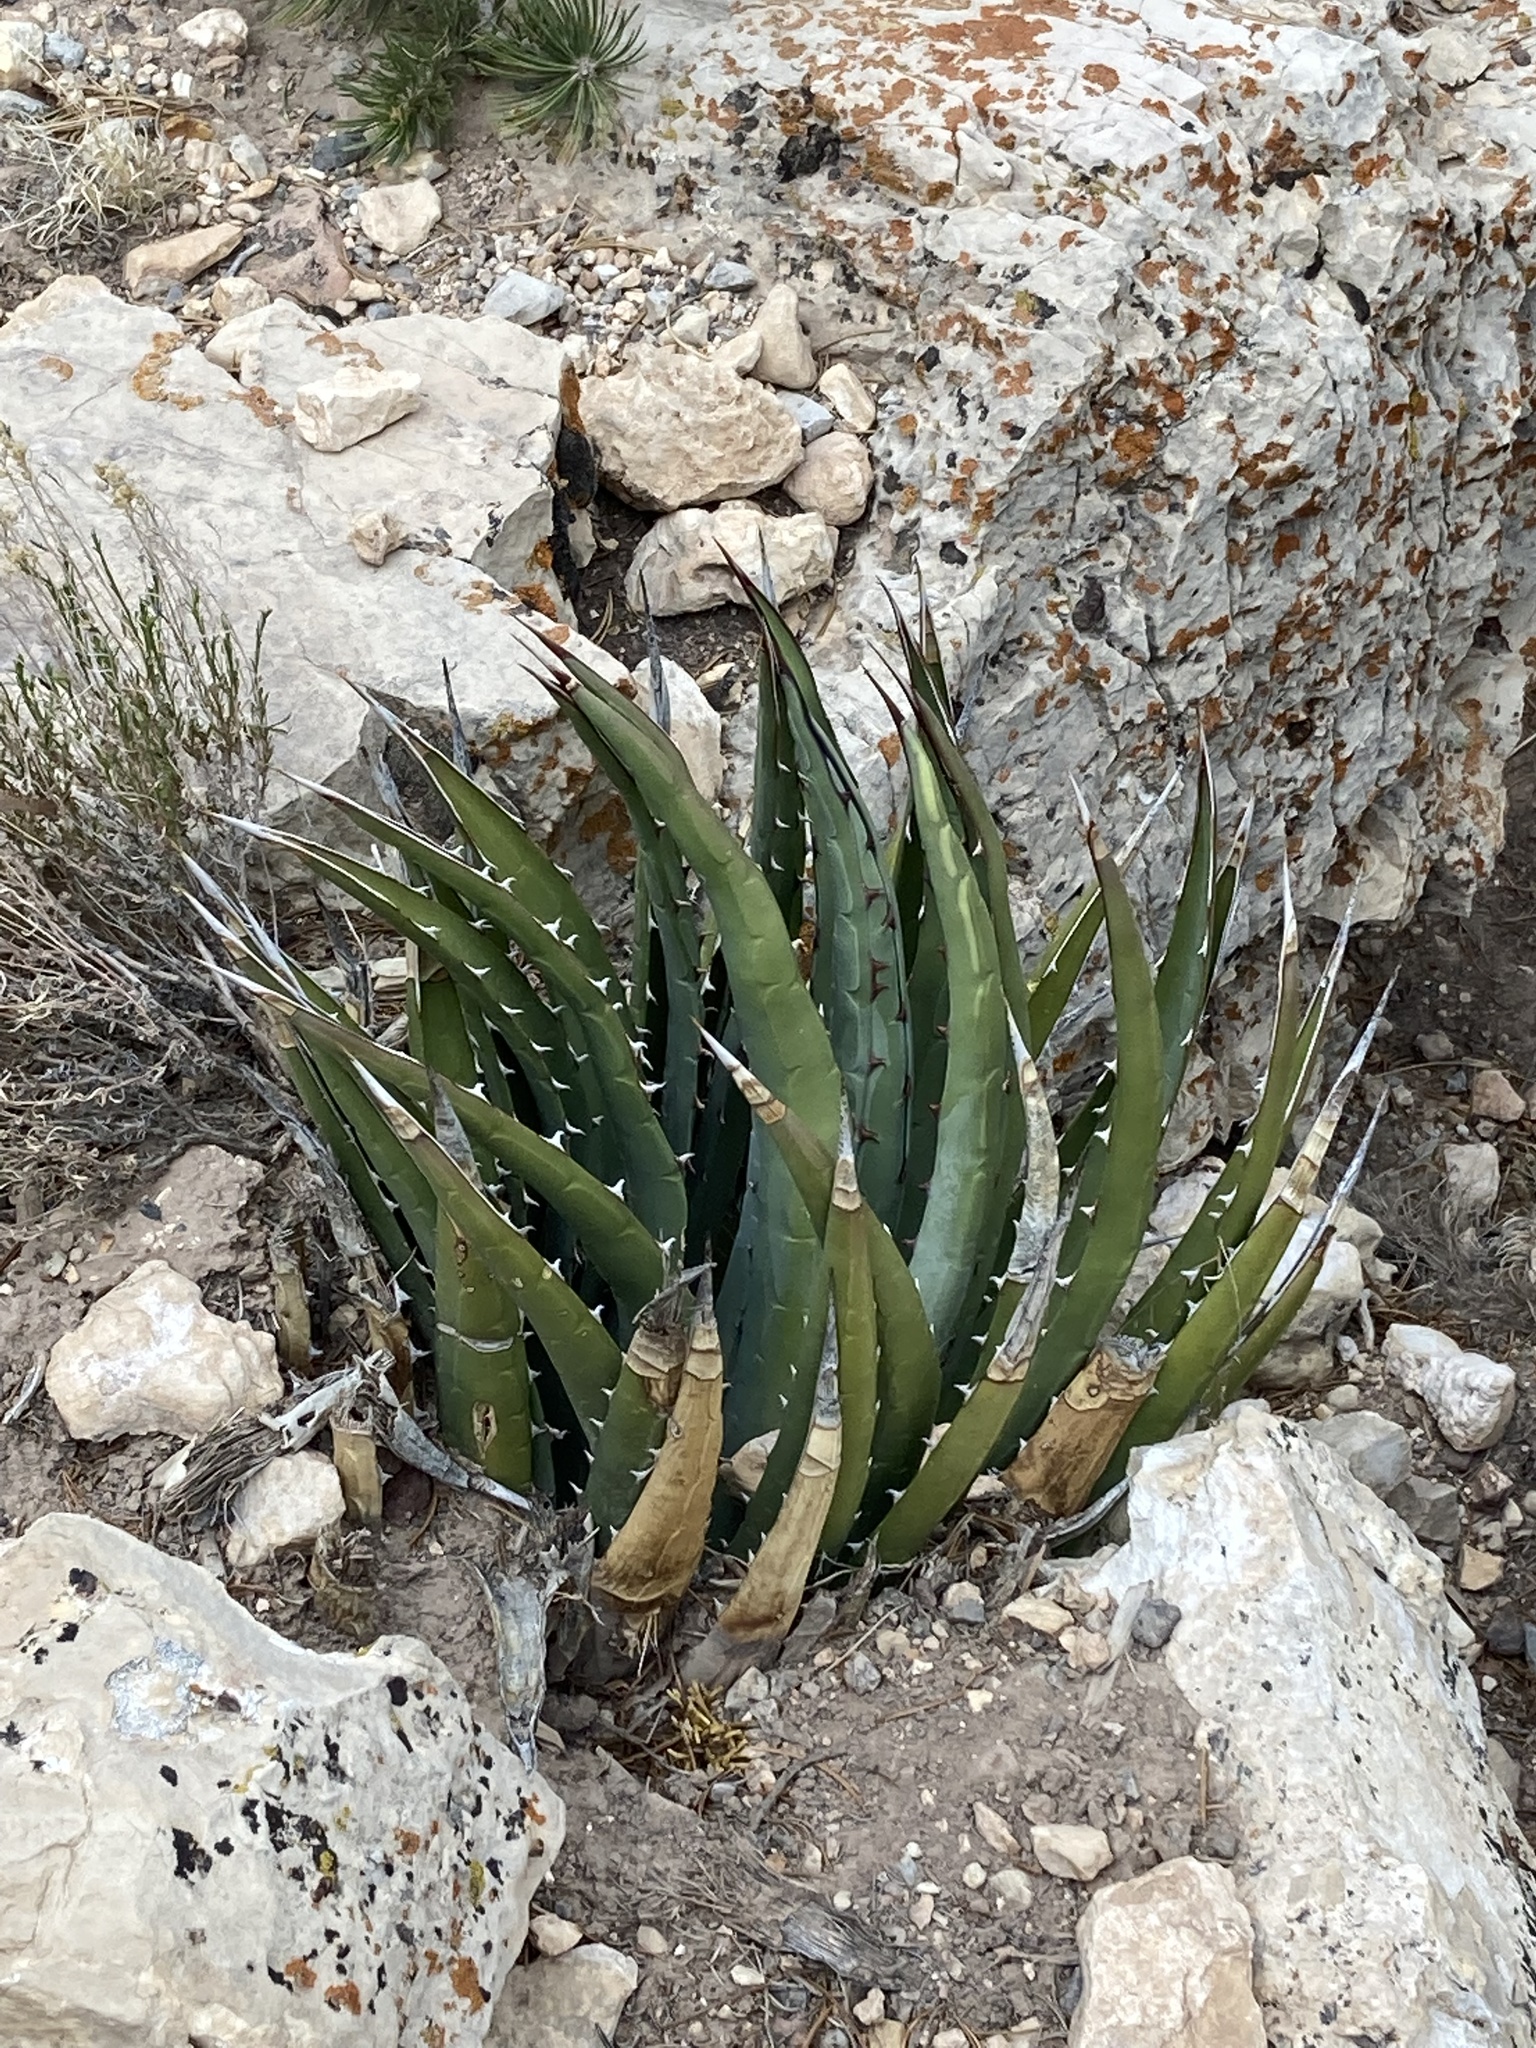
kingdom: Plantae
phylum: Tracheophyta
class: Liliopsida
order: Asparagales
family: Asparagaceae
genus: Agave
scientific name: Agave utahensis
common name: Utah agave
